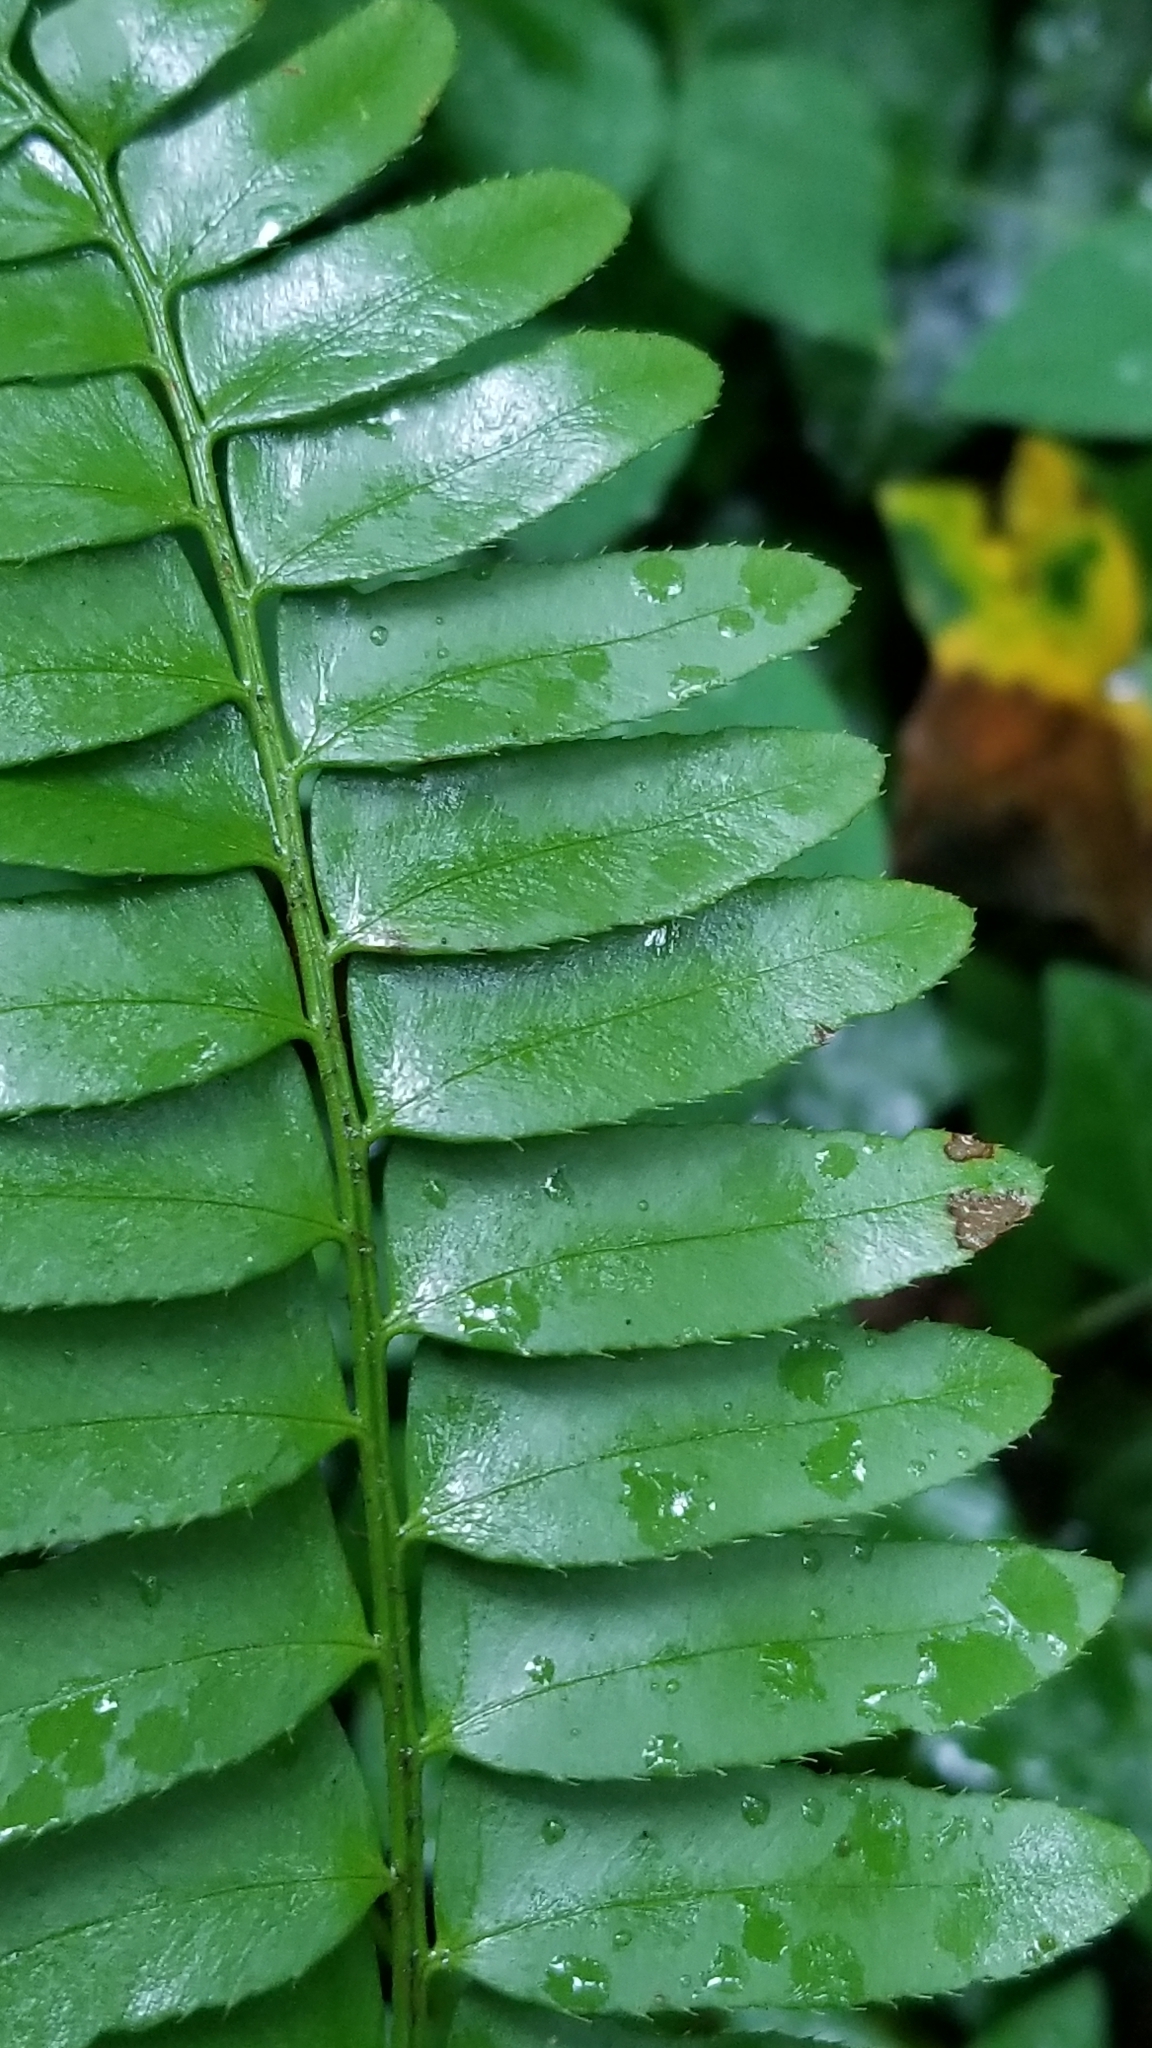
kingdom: Plantae
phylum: Tracheophyta
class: Polypodiopsida
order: Polypodiales
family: Dryopteridaceae
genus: Polystichum
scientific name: Polystichum acrostichoides
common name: Christmas fern
